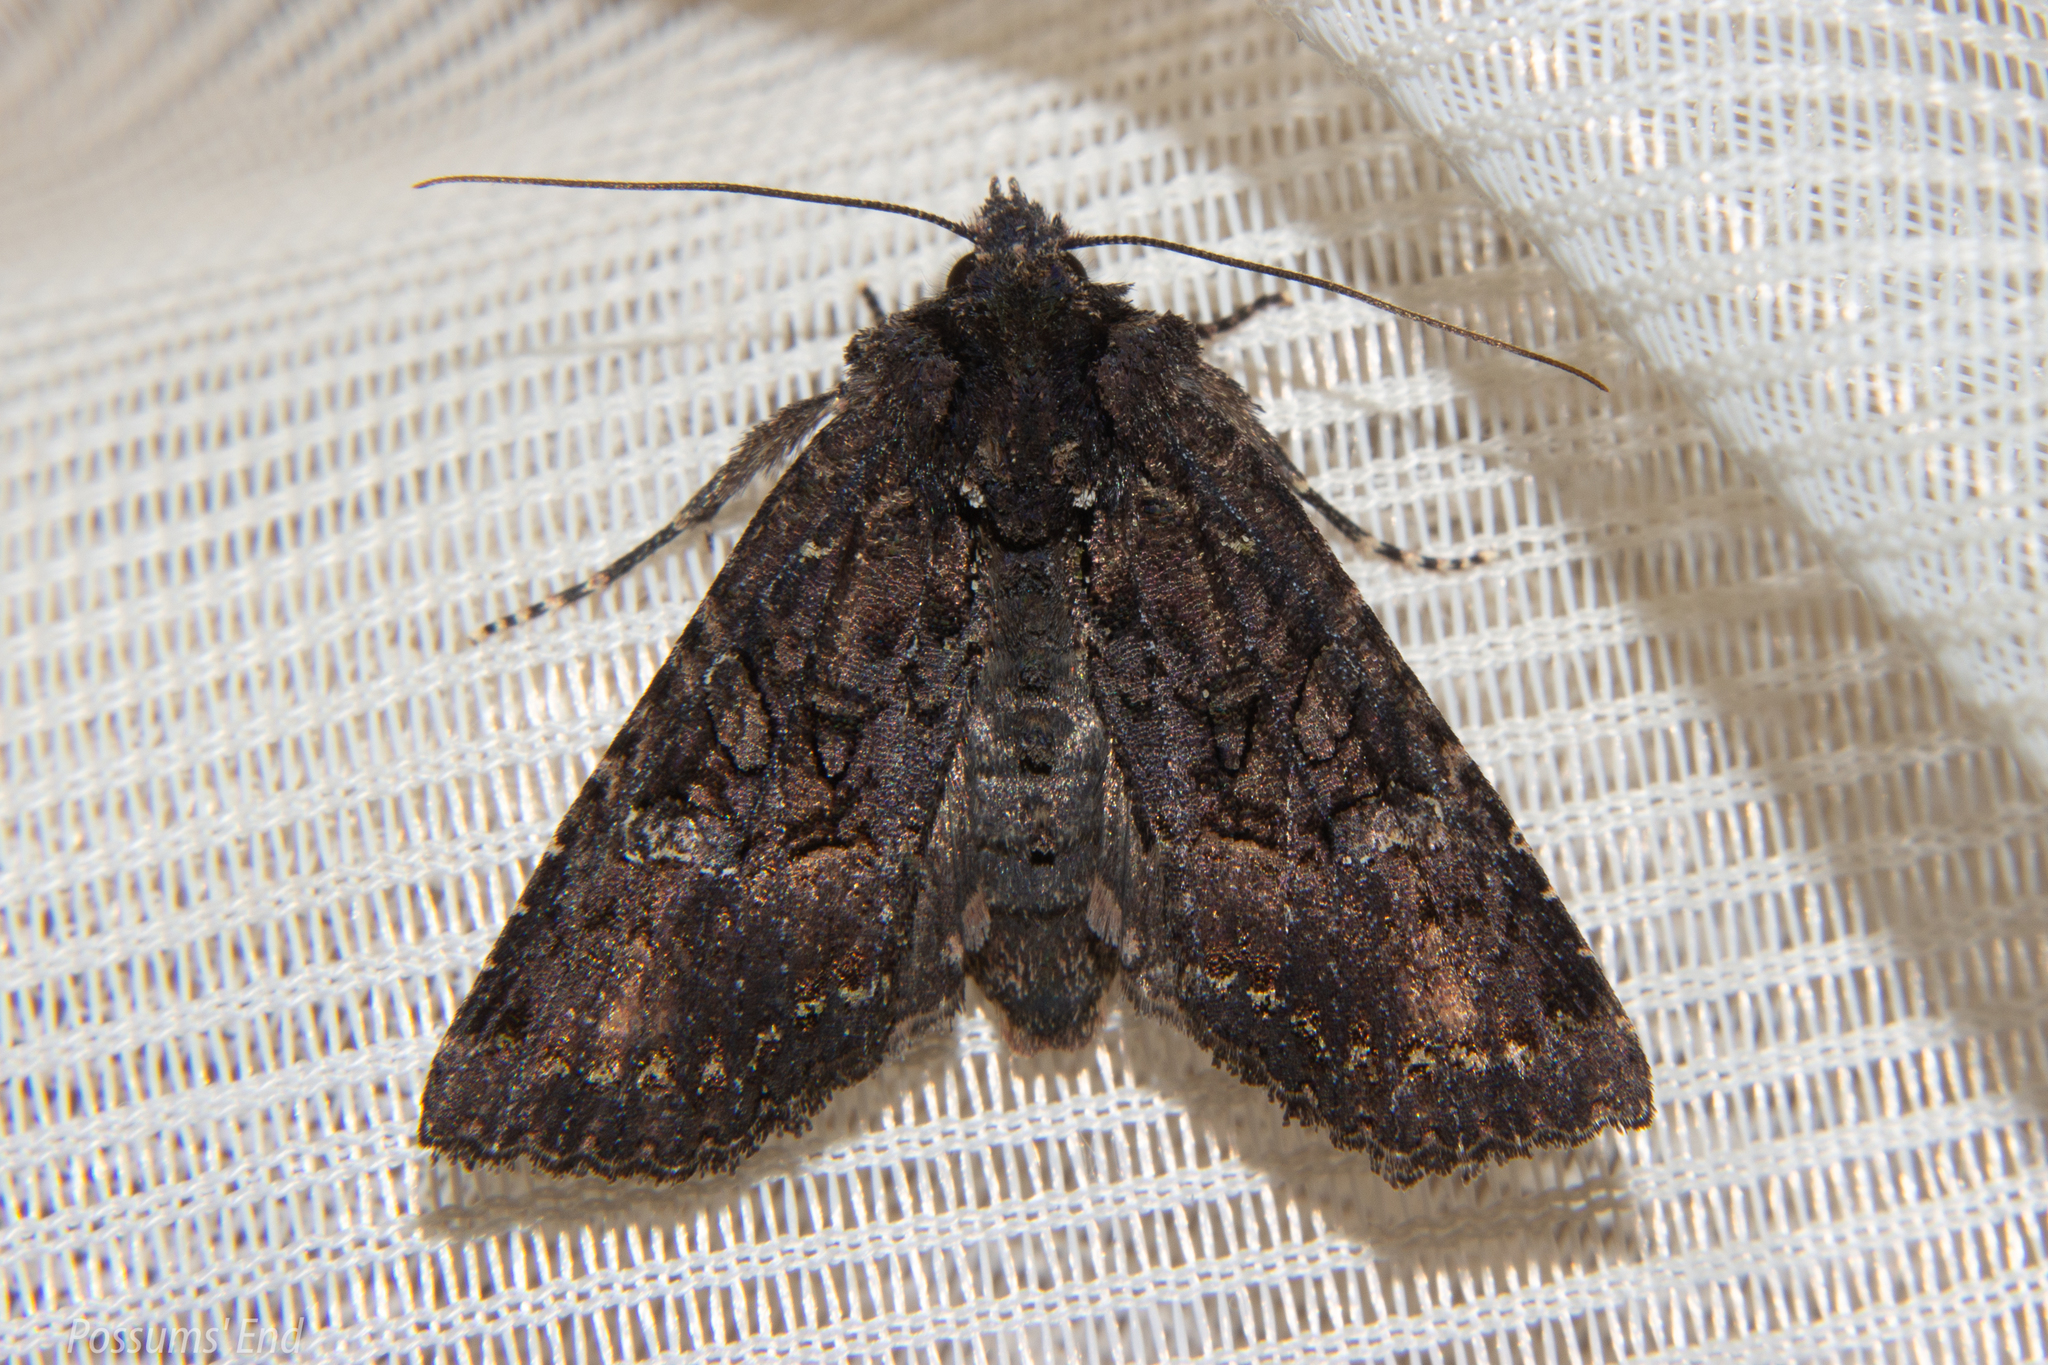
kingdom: Animalia
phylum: Arthropoda
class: Insecta
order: Lepidoptera
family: Noctuidae
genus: Meterana
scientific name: Meterana ochthistis
